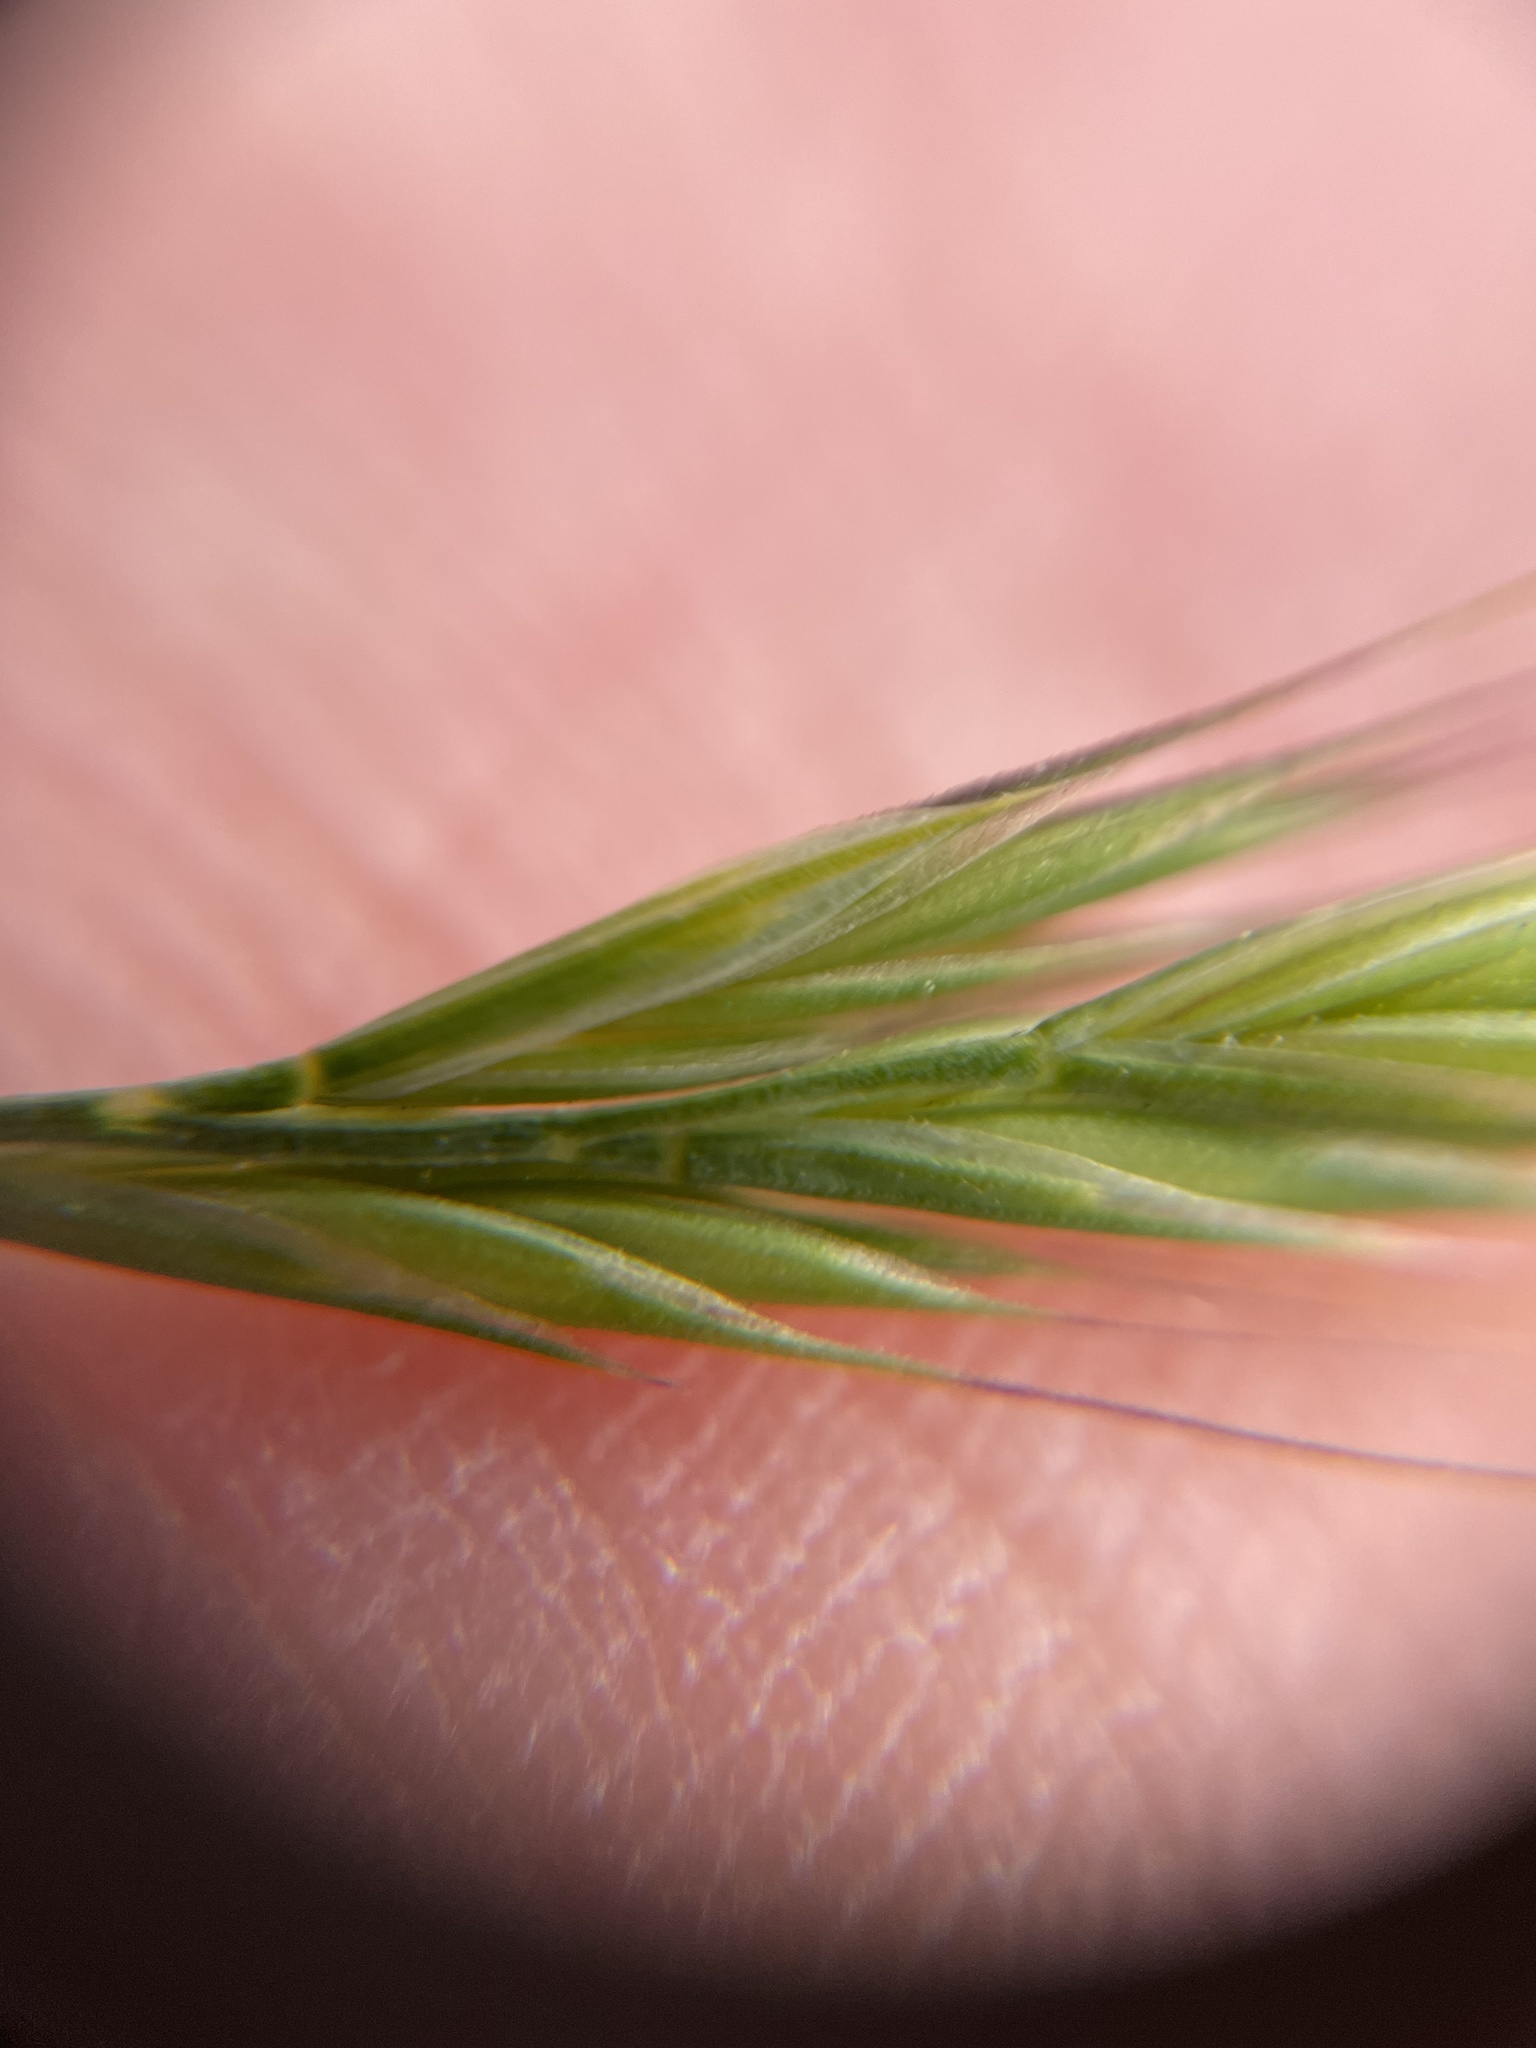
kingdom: Plantae
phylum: Tracheophyta
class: Liliopsida
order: Poales
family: Poaceae
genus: Festuca
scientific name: Festuca bromoides
